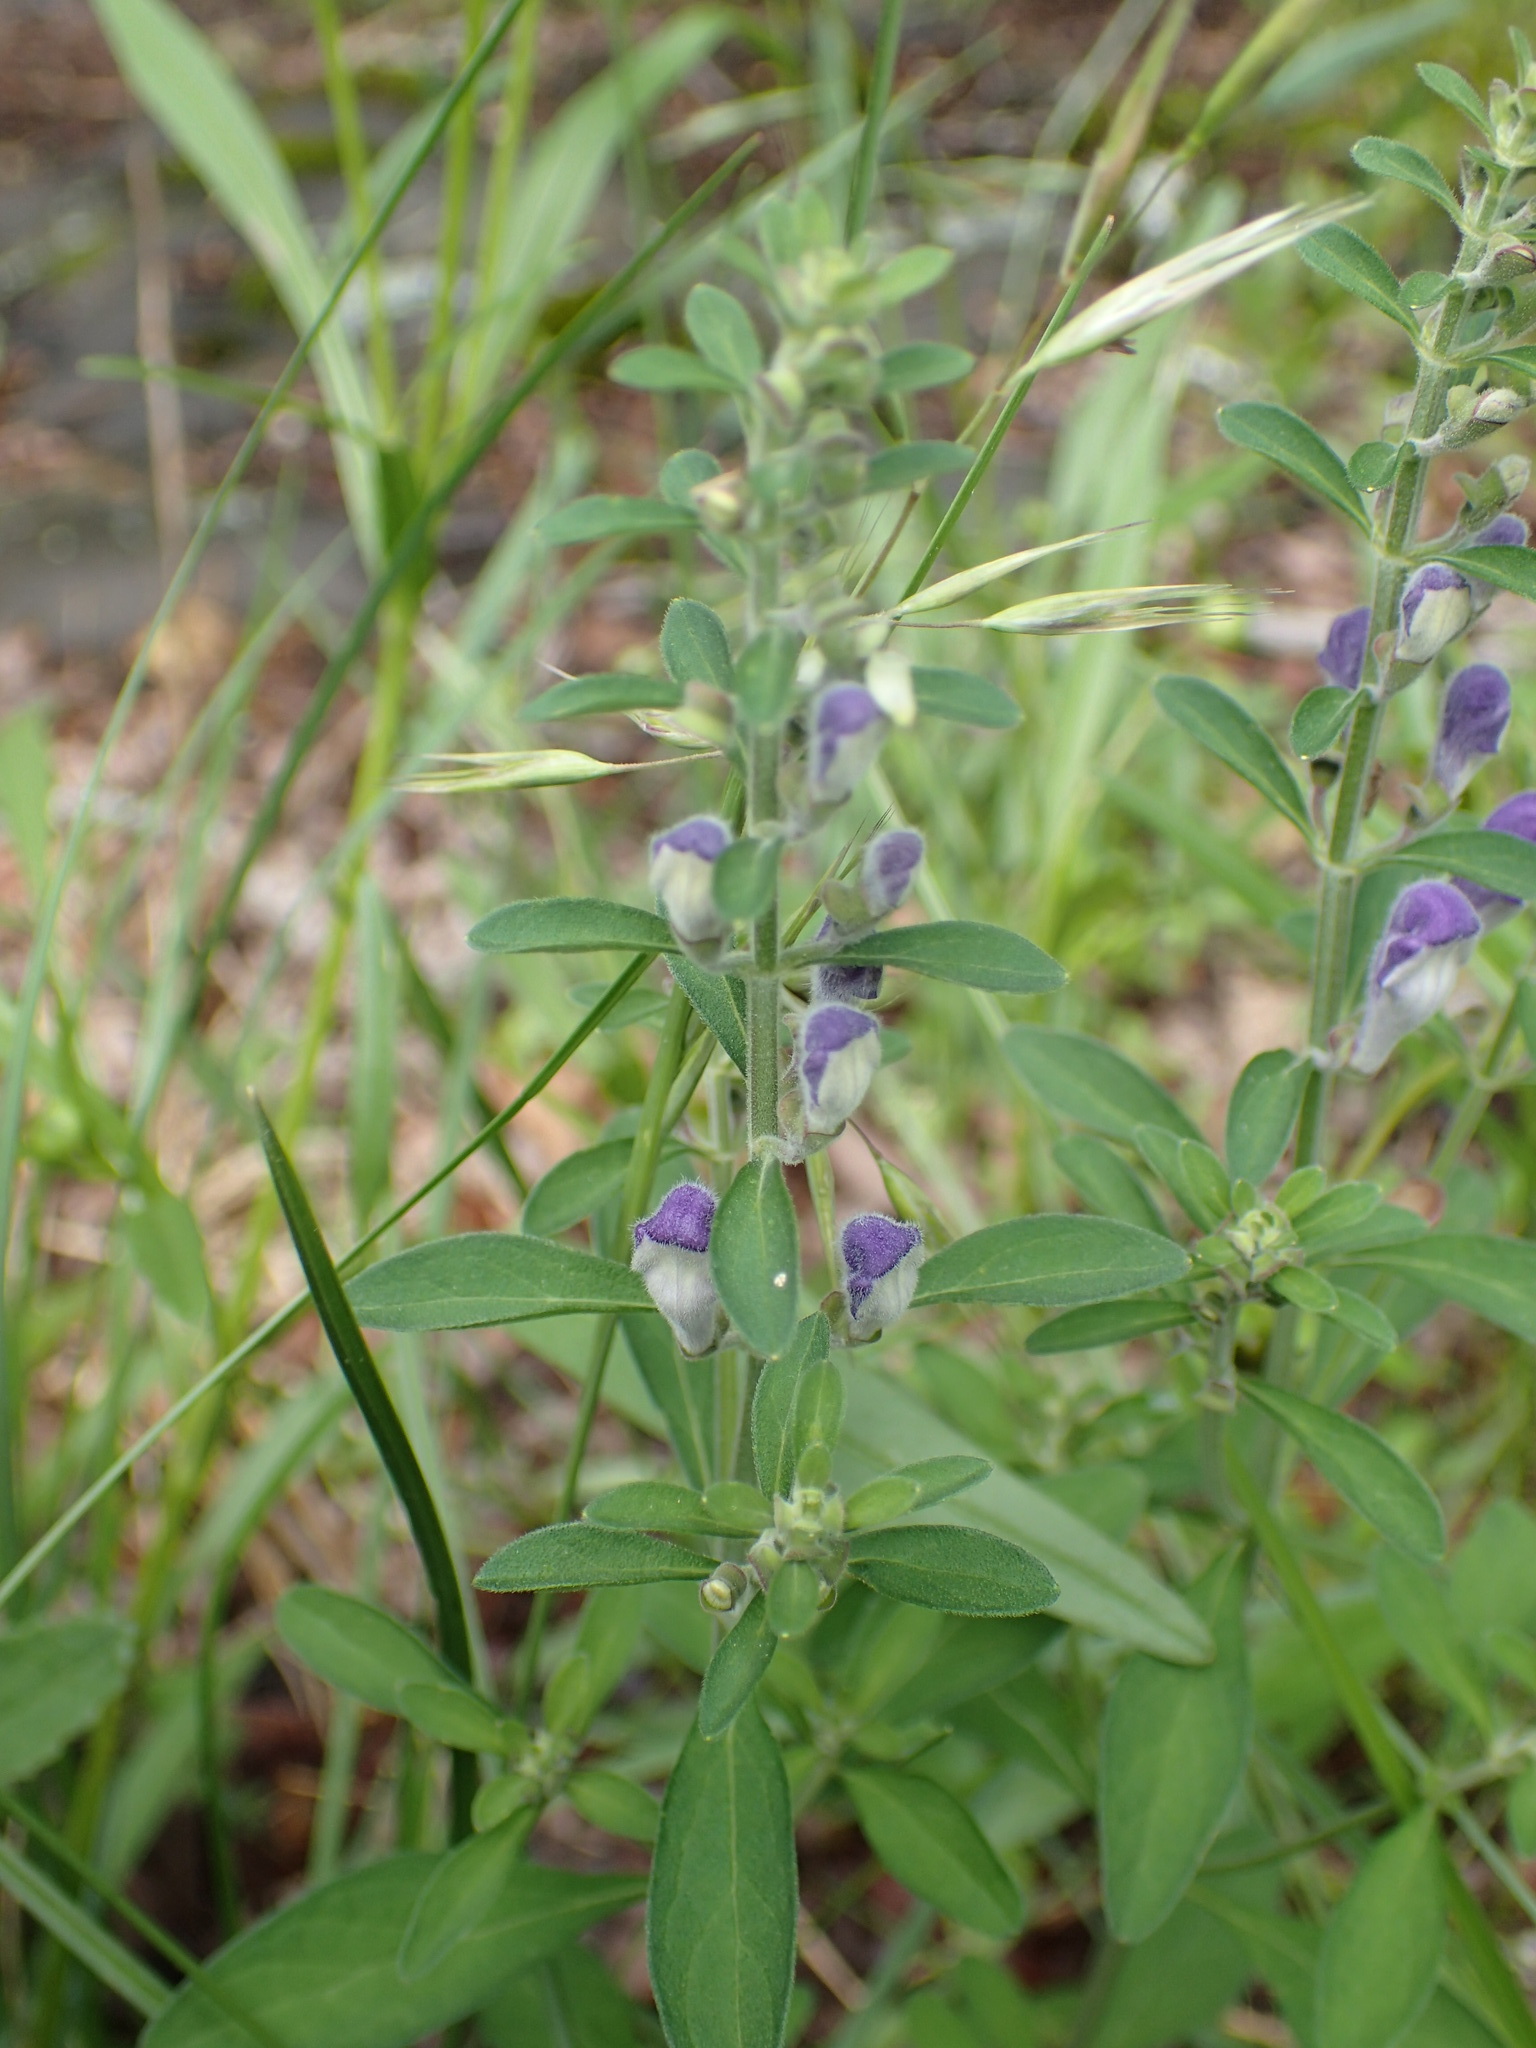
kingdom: Plantae
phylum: Tracheophyta
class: Magnoliopsida
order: Lamiales
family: Lamiaceae
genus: Scutellaria
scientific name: Scutellaria integrifolia
